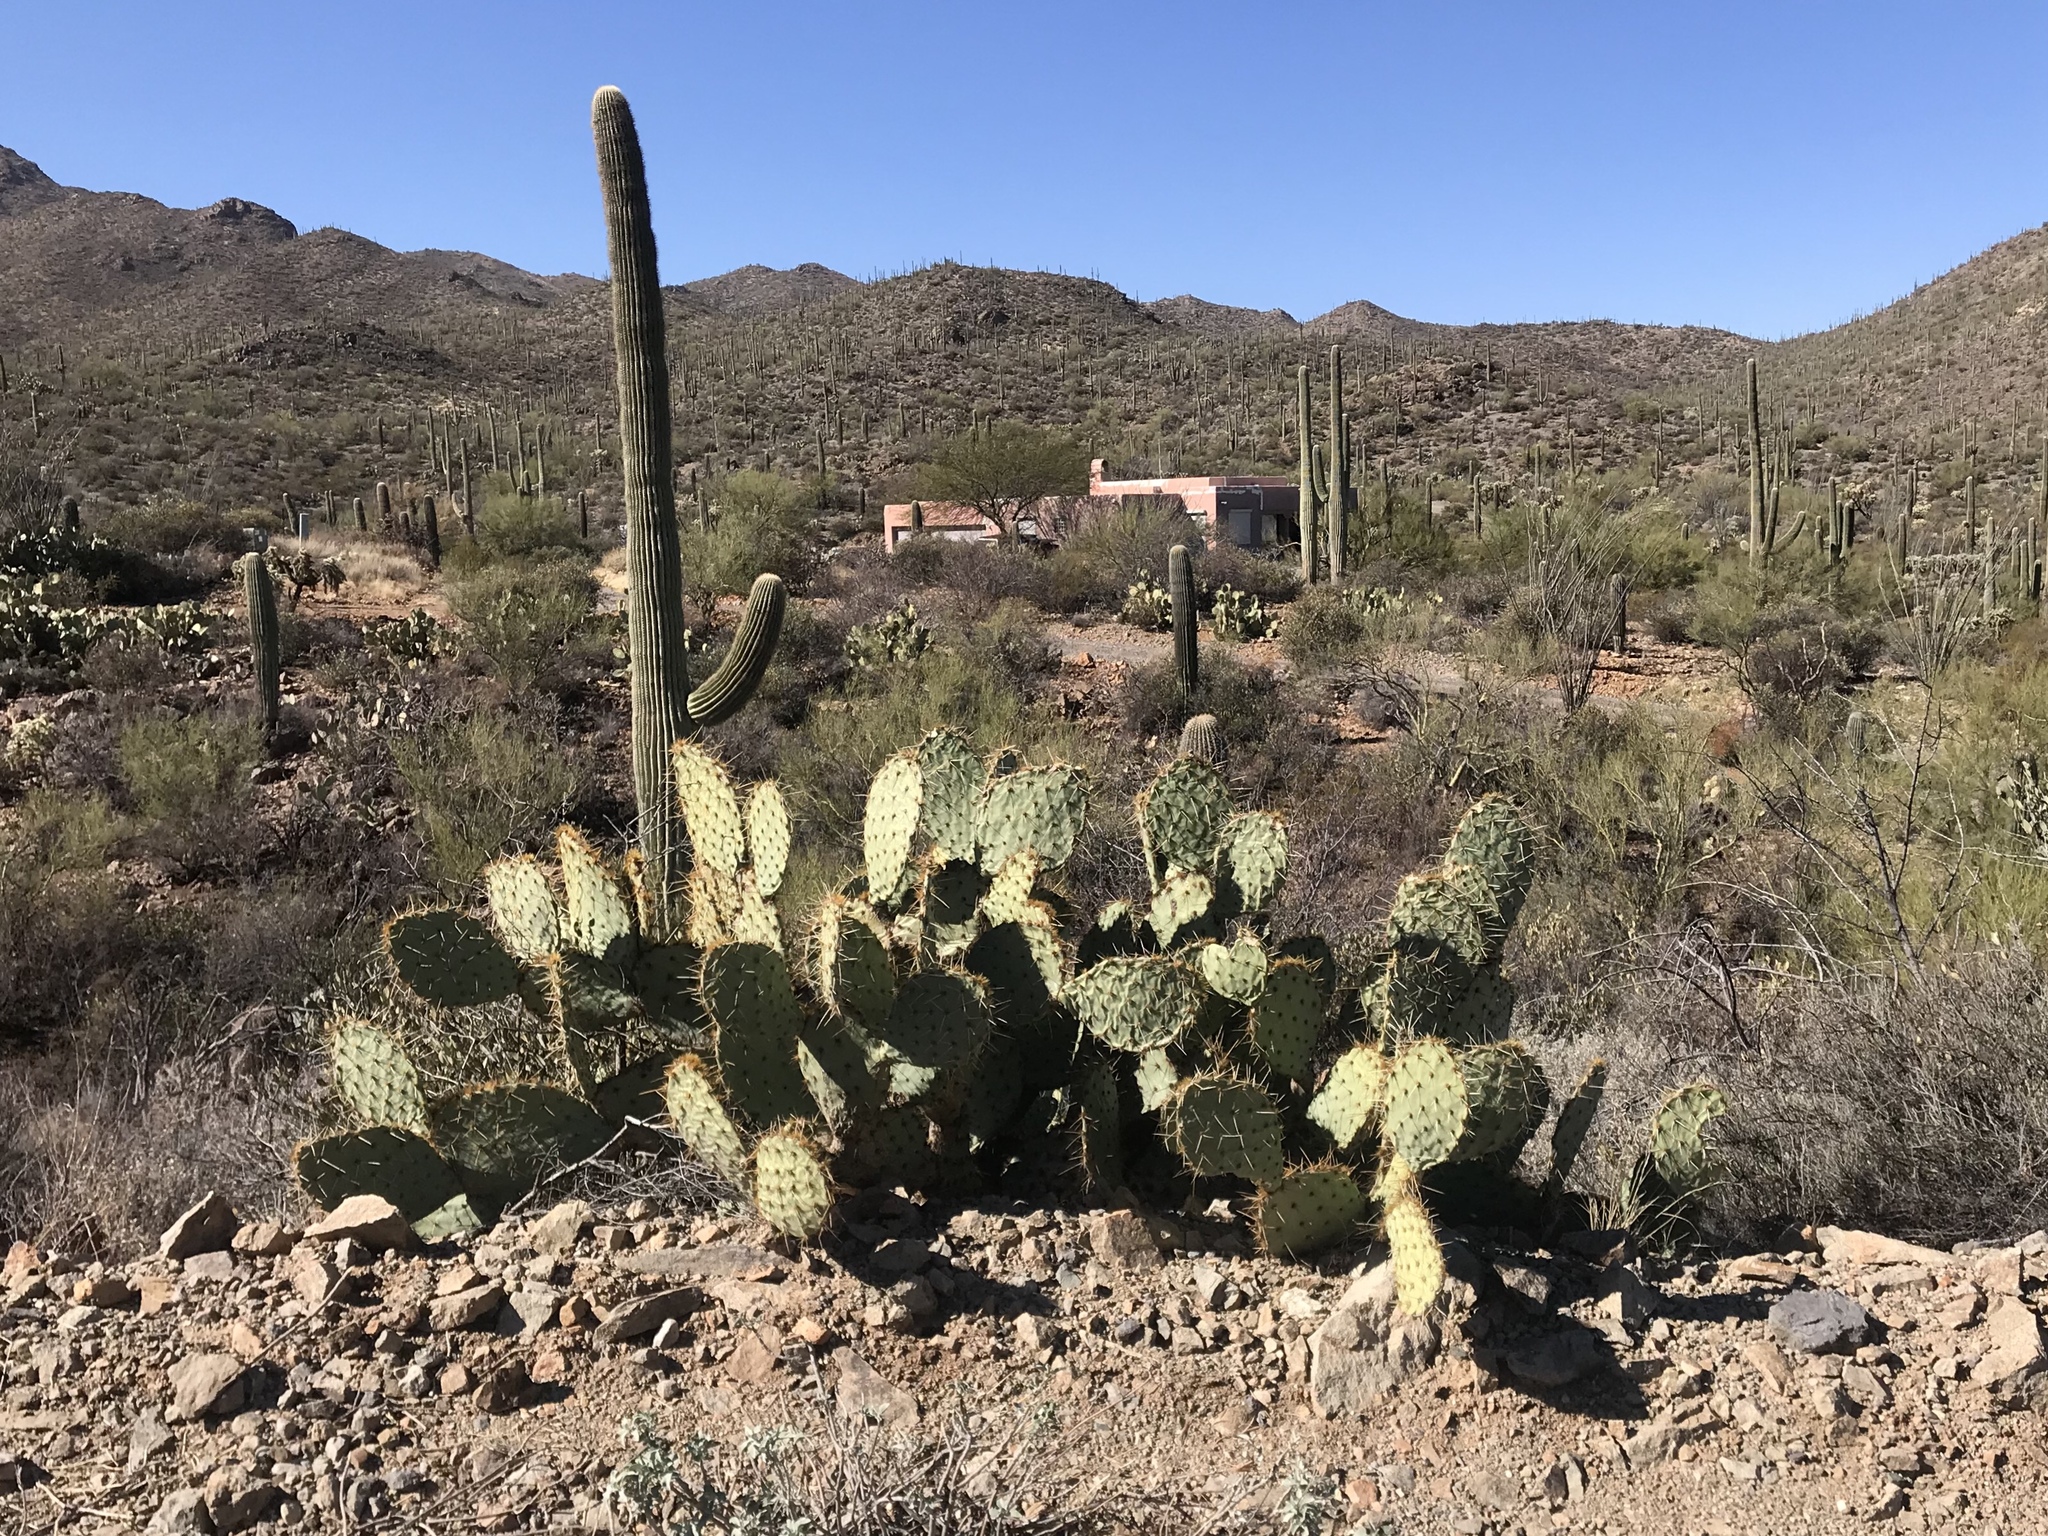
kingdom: Plantae
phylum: Tracheophyta
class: Magnoliopsida
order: Caryophyllales
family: Cactaceae
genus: Opuntia
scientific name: Opuntia engelmannii
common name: Cactus-apple
